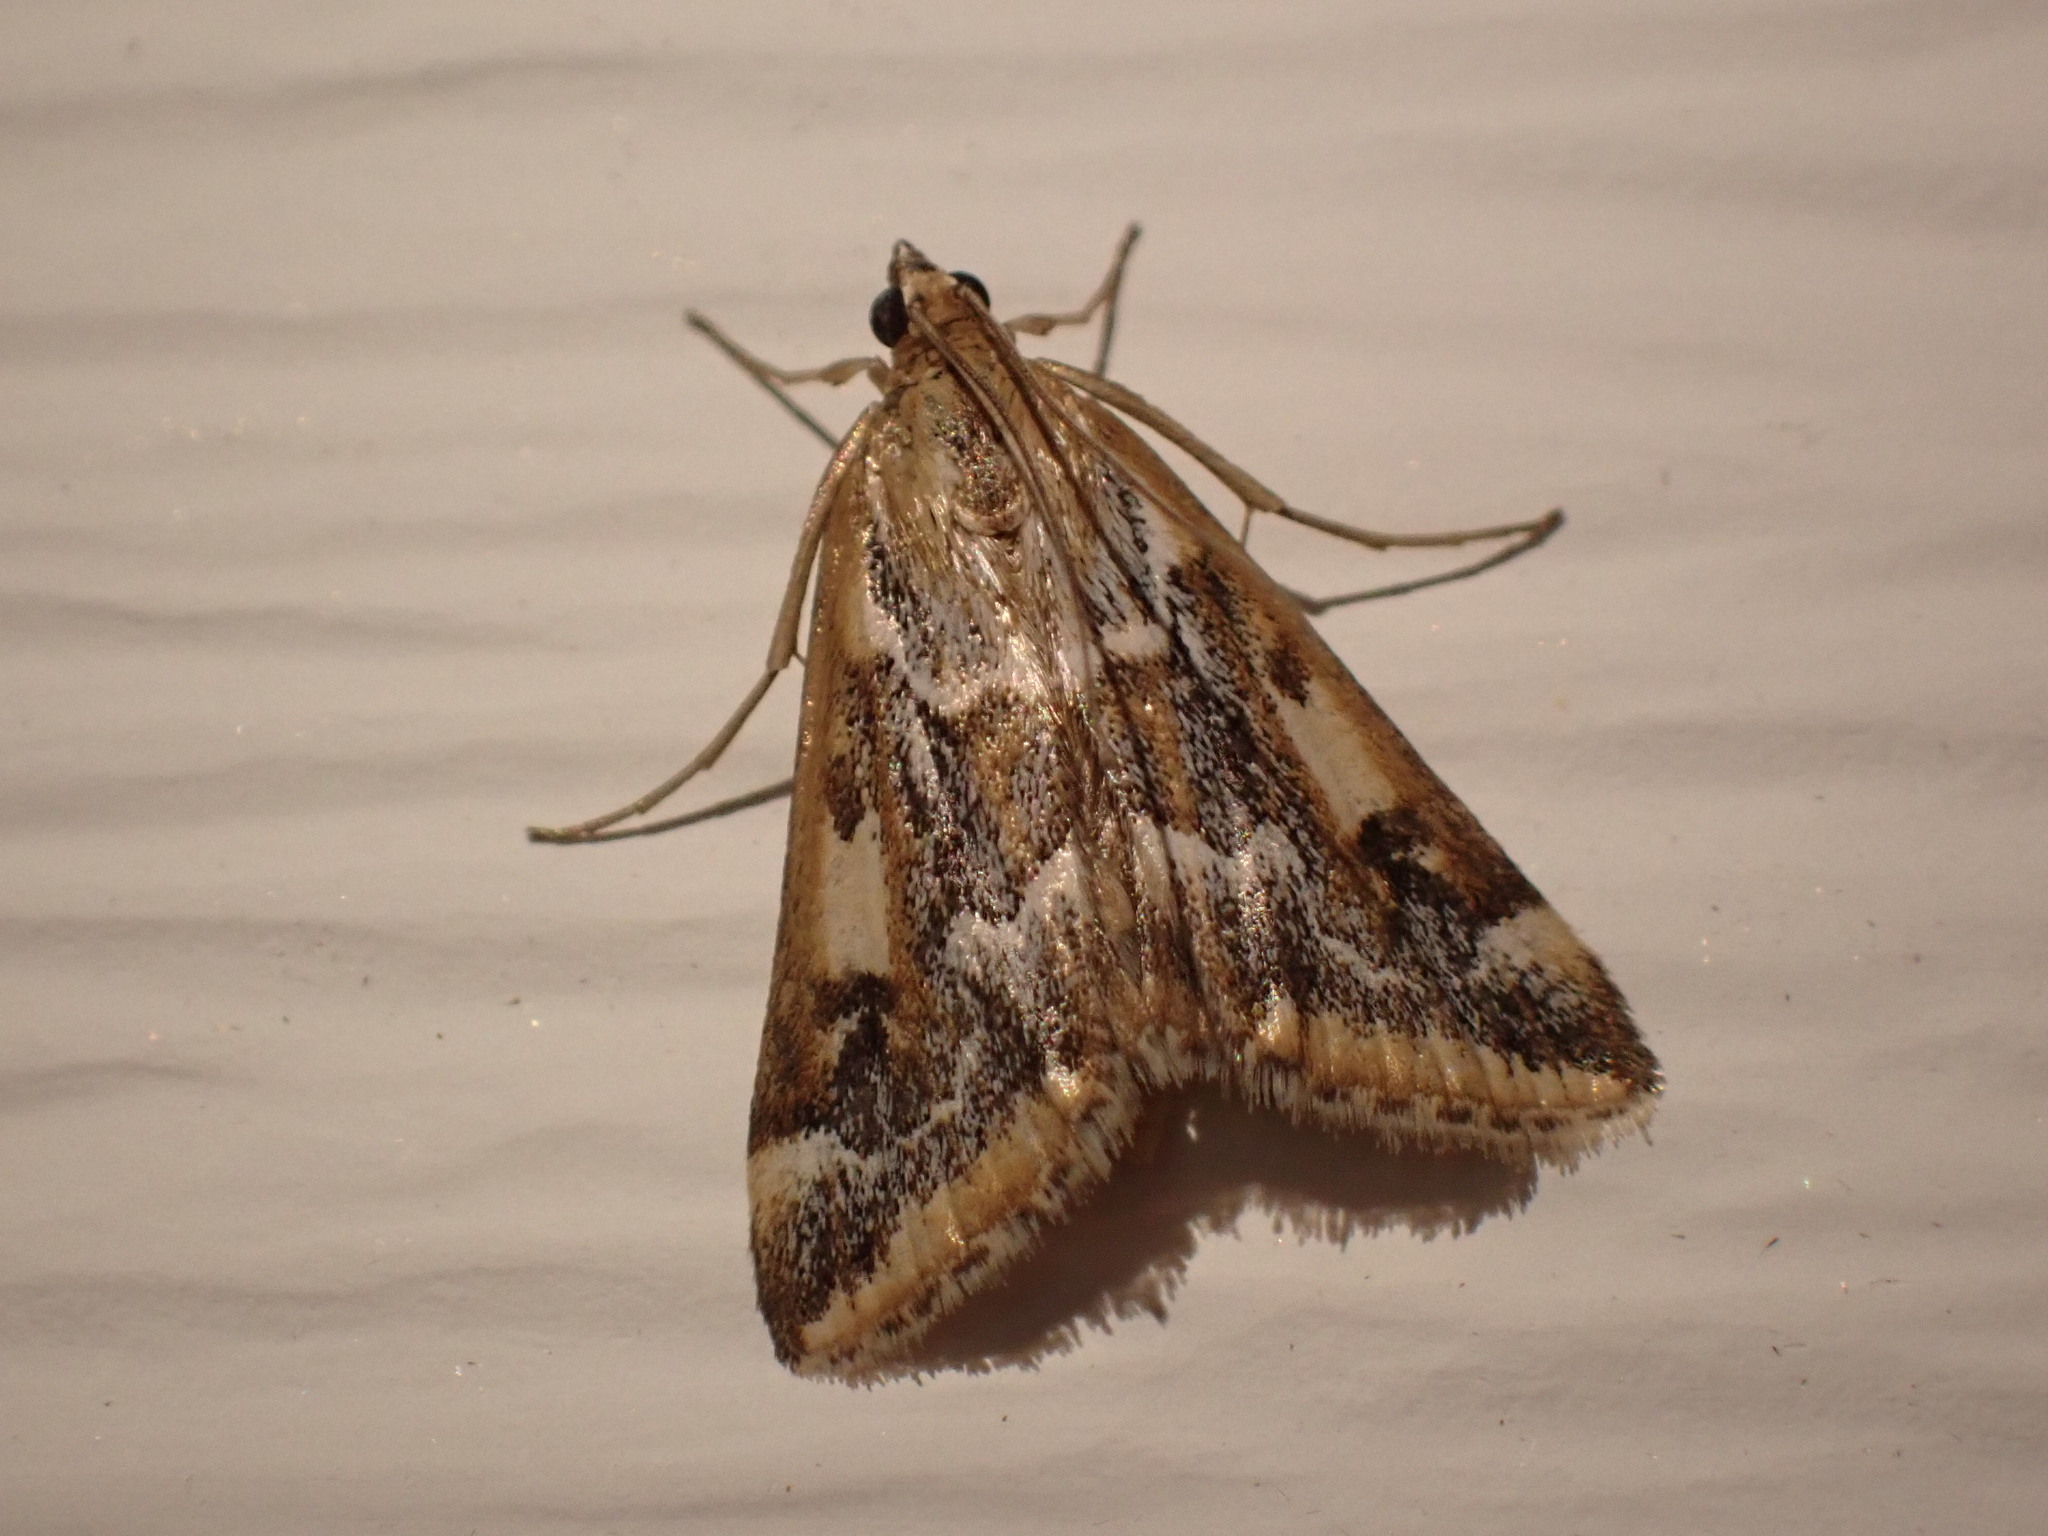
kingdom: Animalia
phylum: Arthropoda
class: Insecta
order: Lepidoptera
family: Crambidae
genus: Loxostege
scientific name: Loxostege lepidalis
